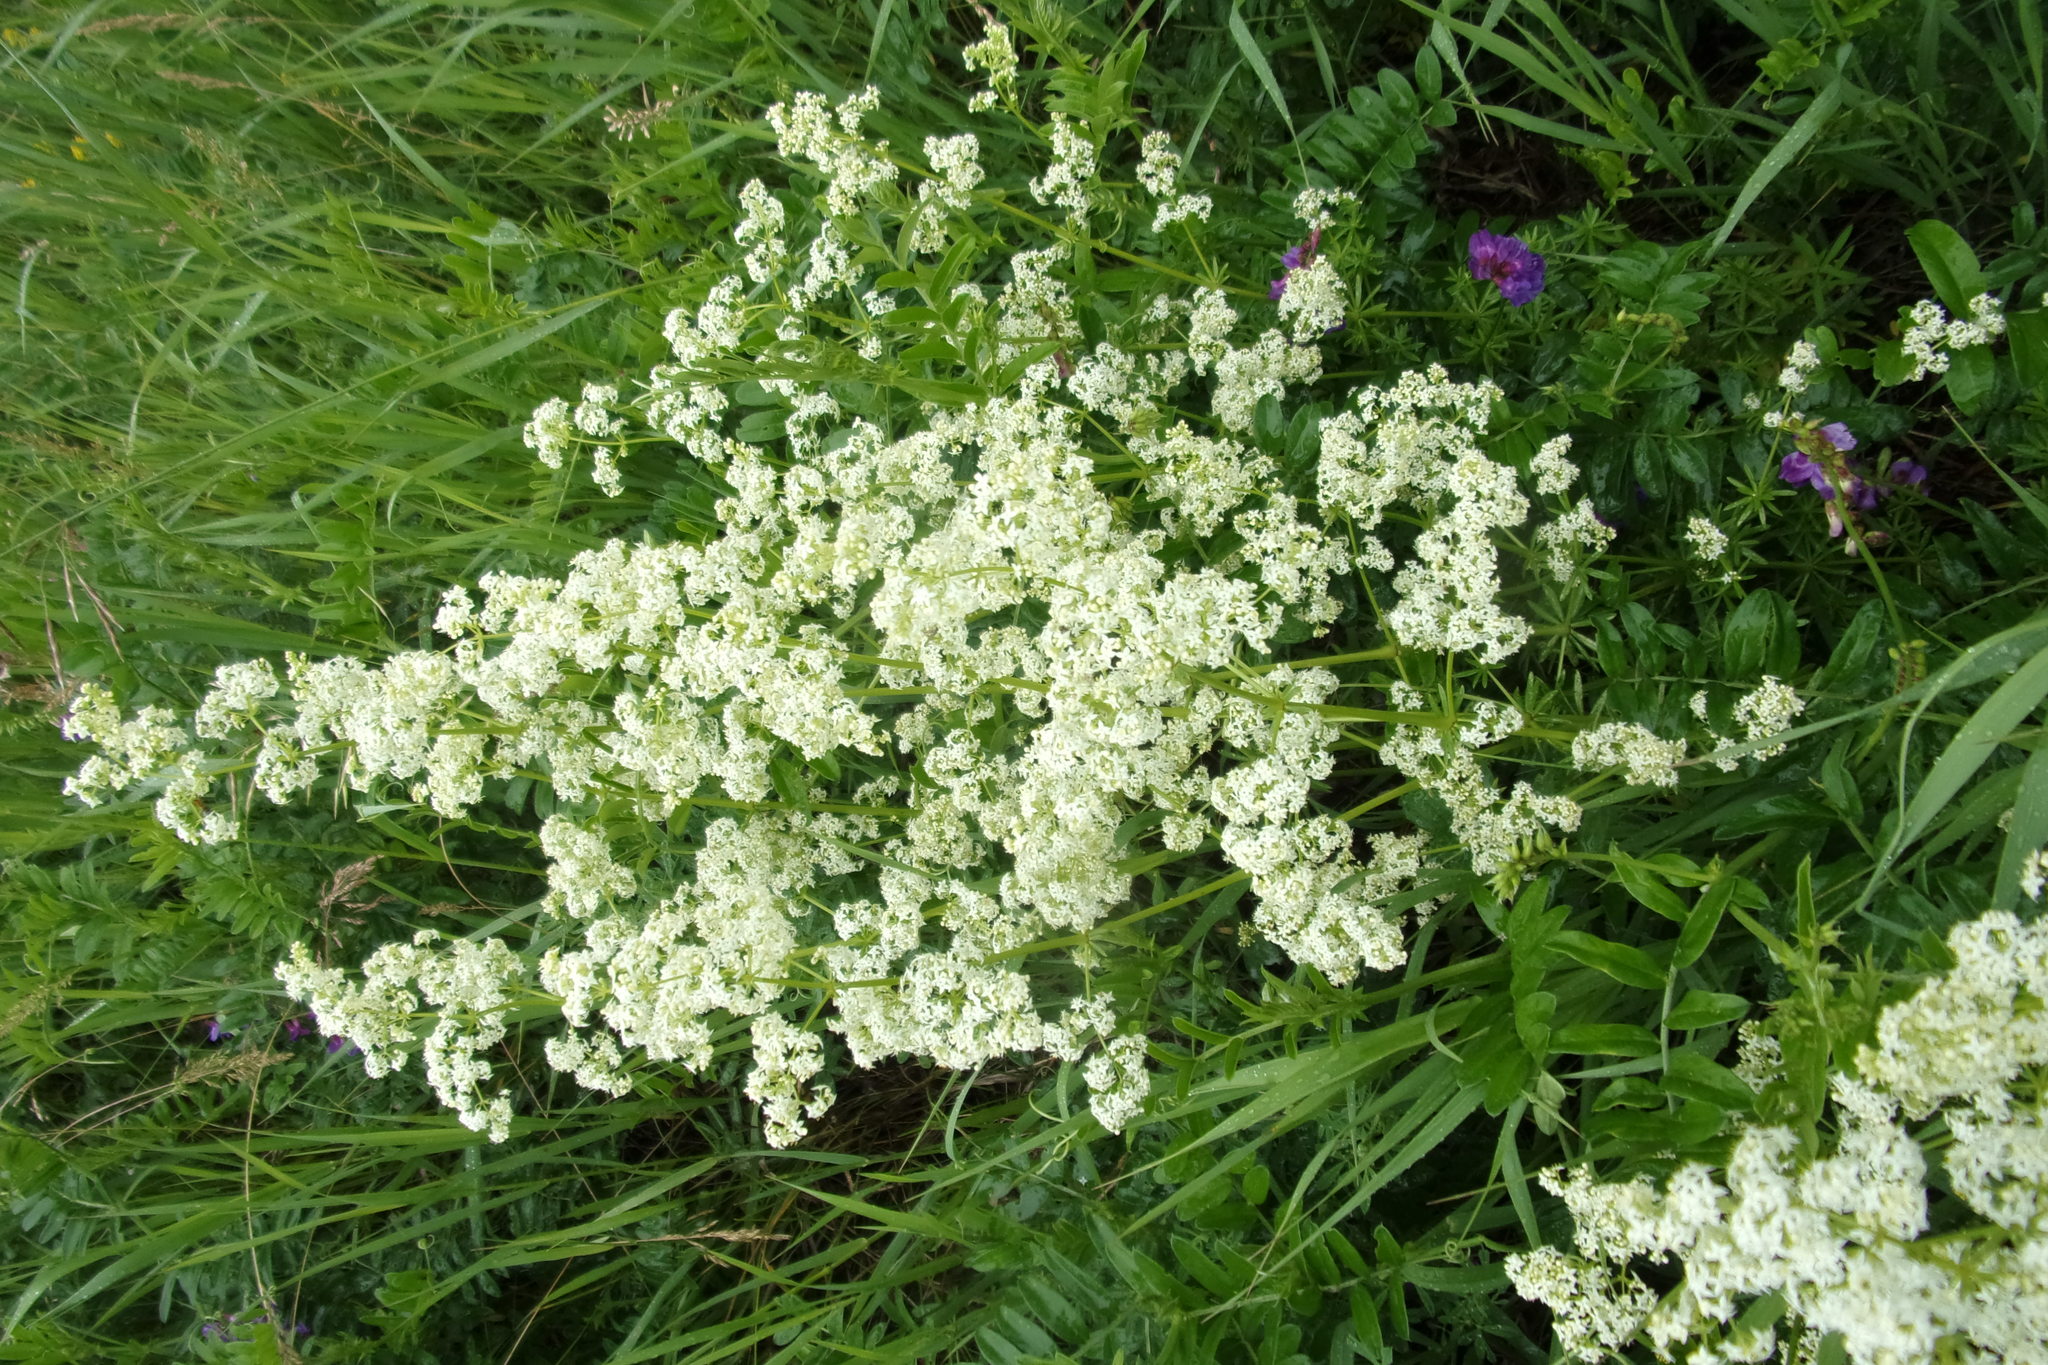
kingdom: Plantae
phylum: Tracheophyta
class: Magnoliopsida
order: Gentianales
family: Rubiaceae
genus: Galium
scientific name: Galium mollugo
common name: Hedge bedstraw
